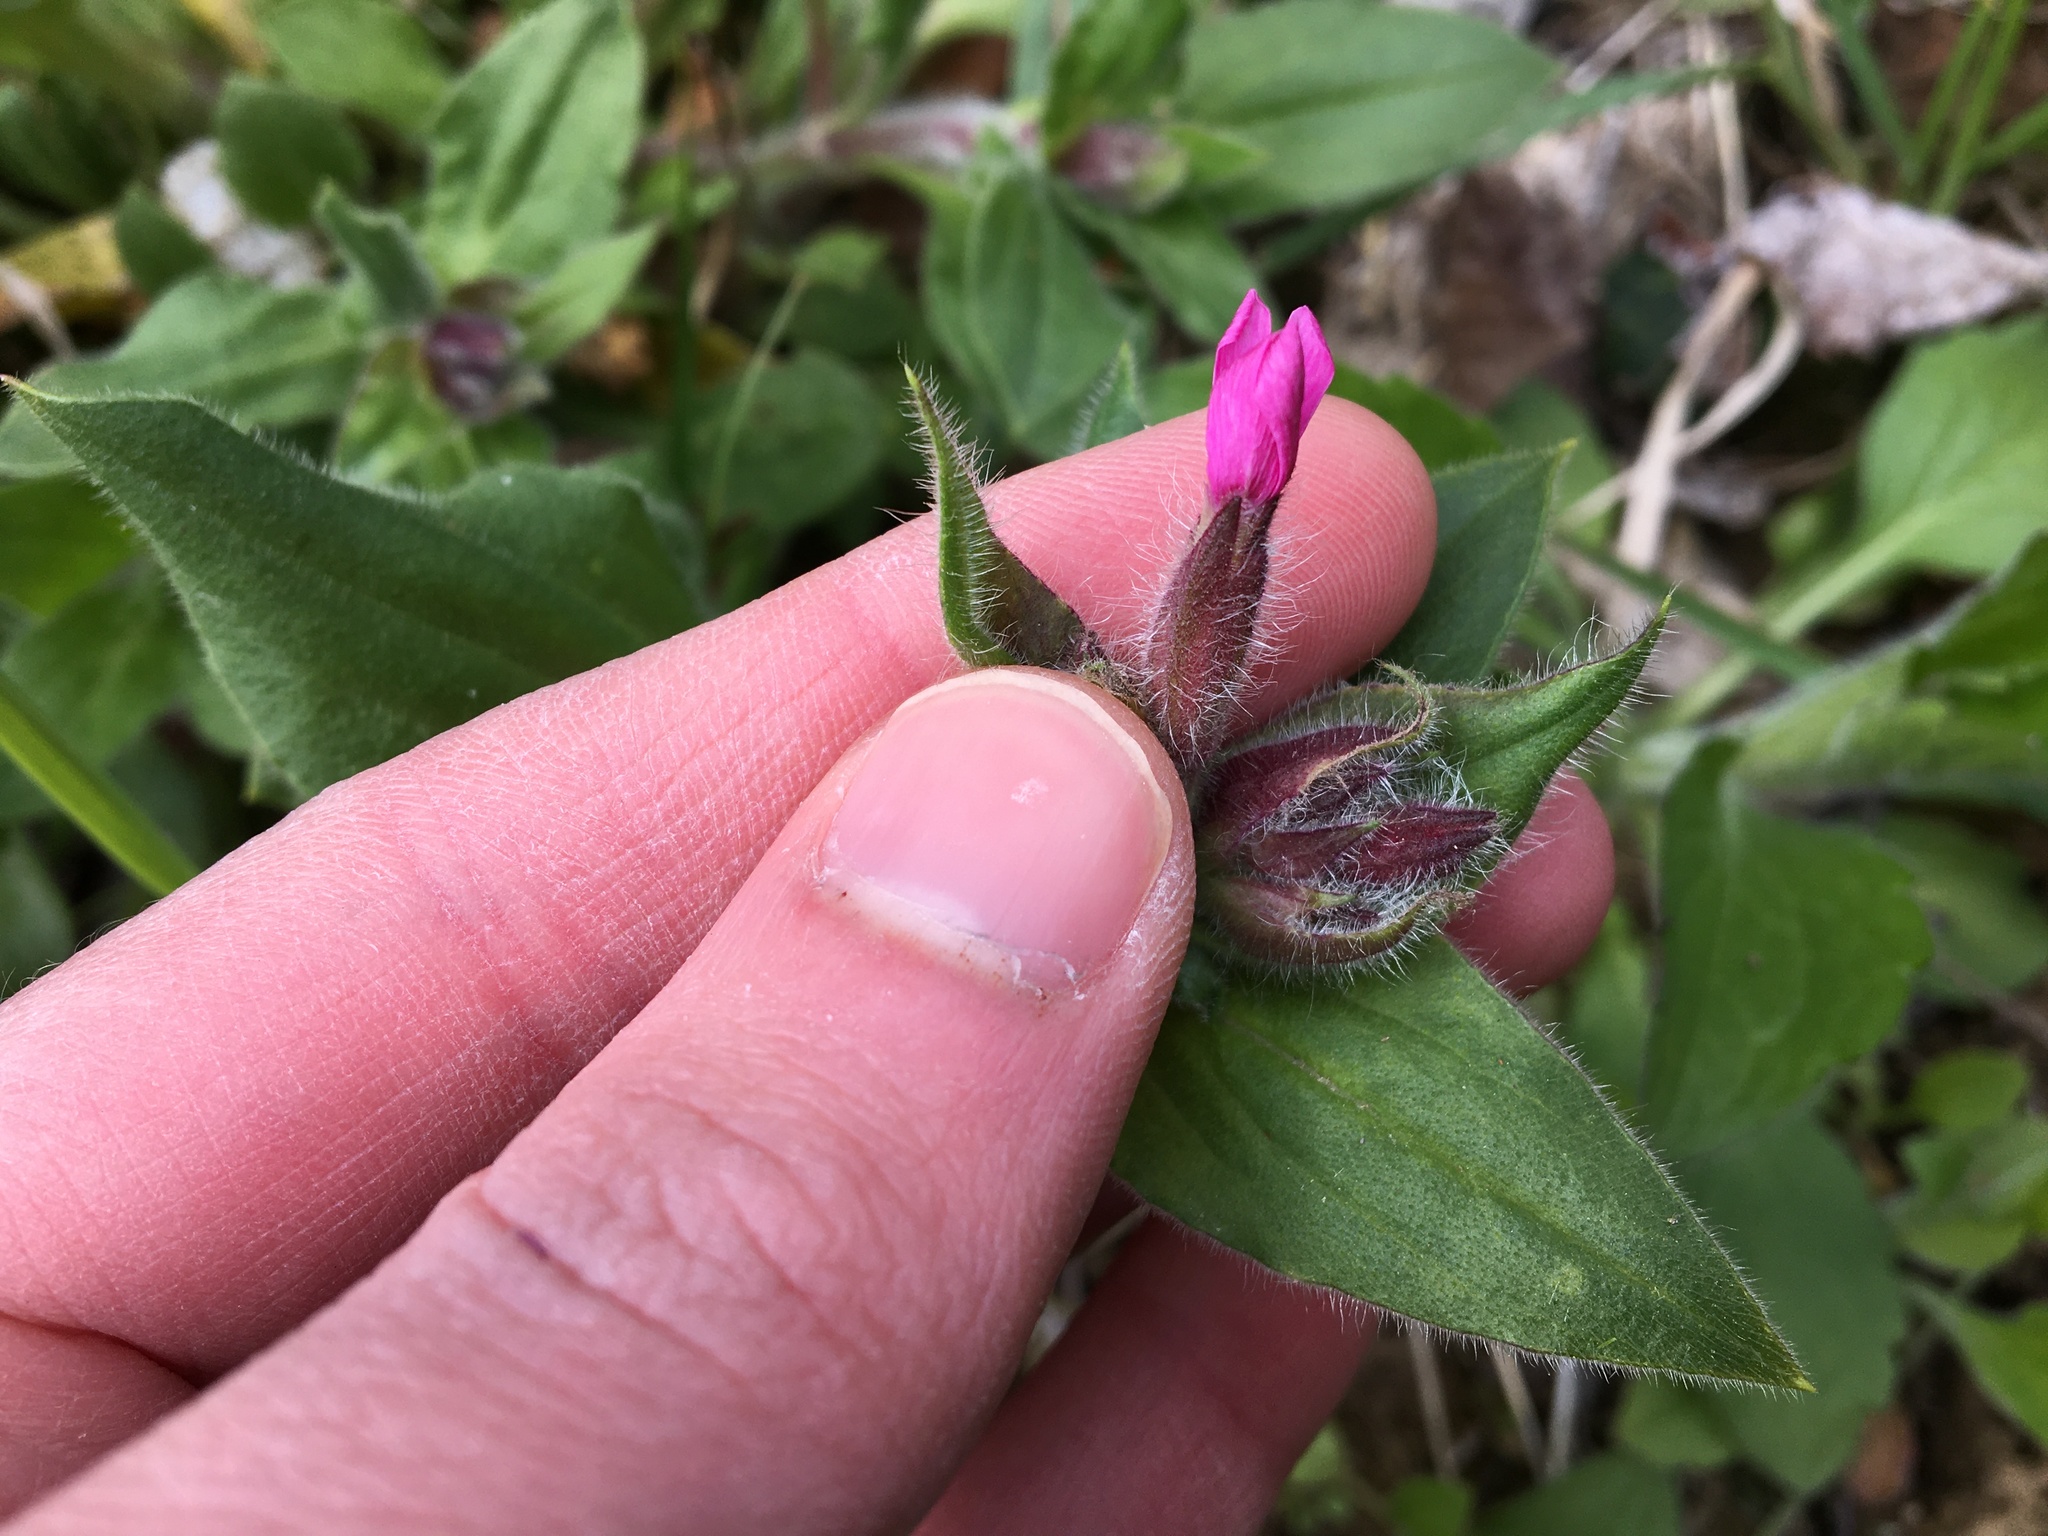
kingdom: Plantae
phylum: Tracheophyta
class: Magnoliopsida
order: Caryophyllales
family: Caryophyllaceae
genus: Silene
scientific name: Silene dioica
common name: Red campion
